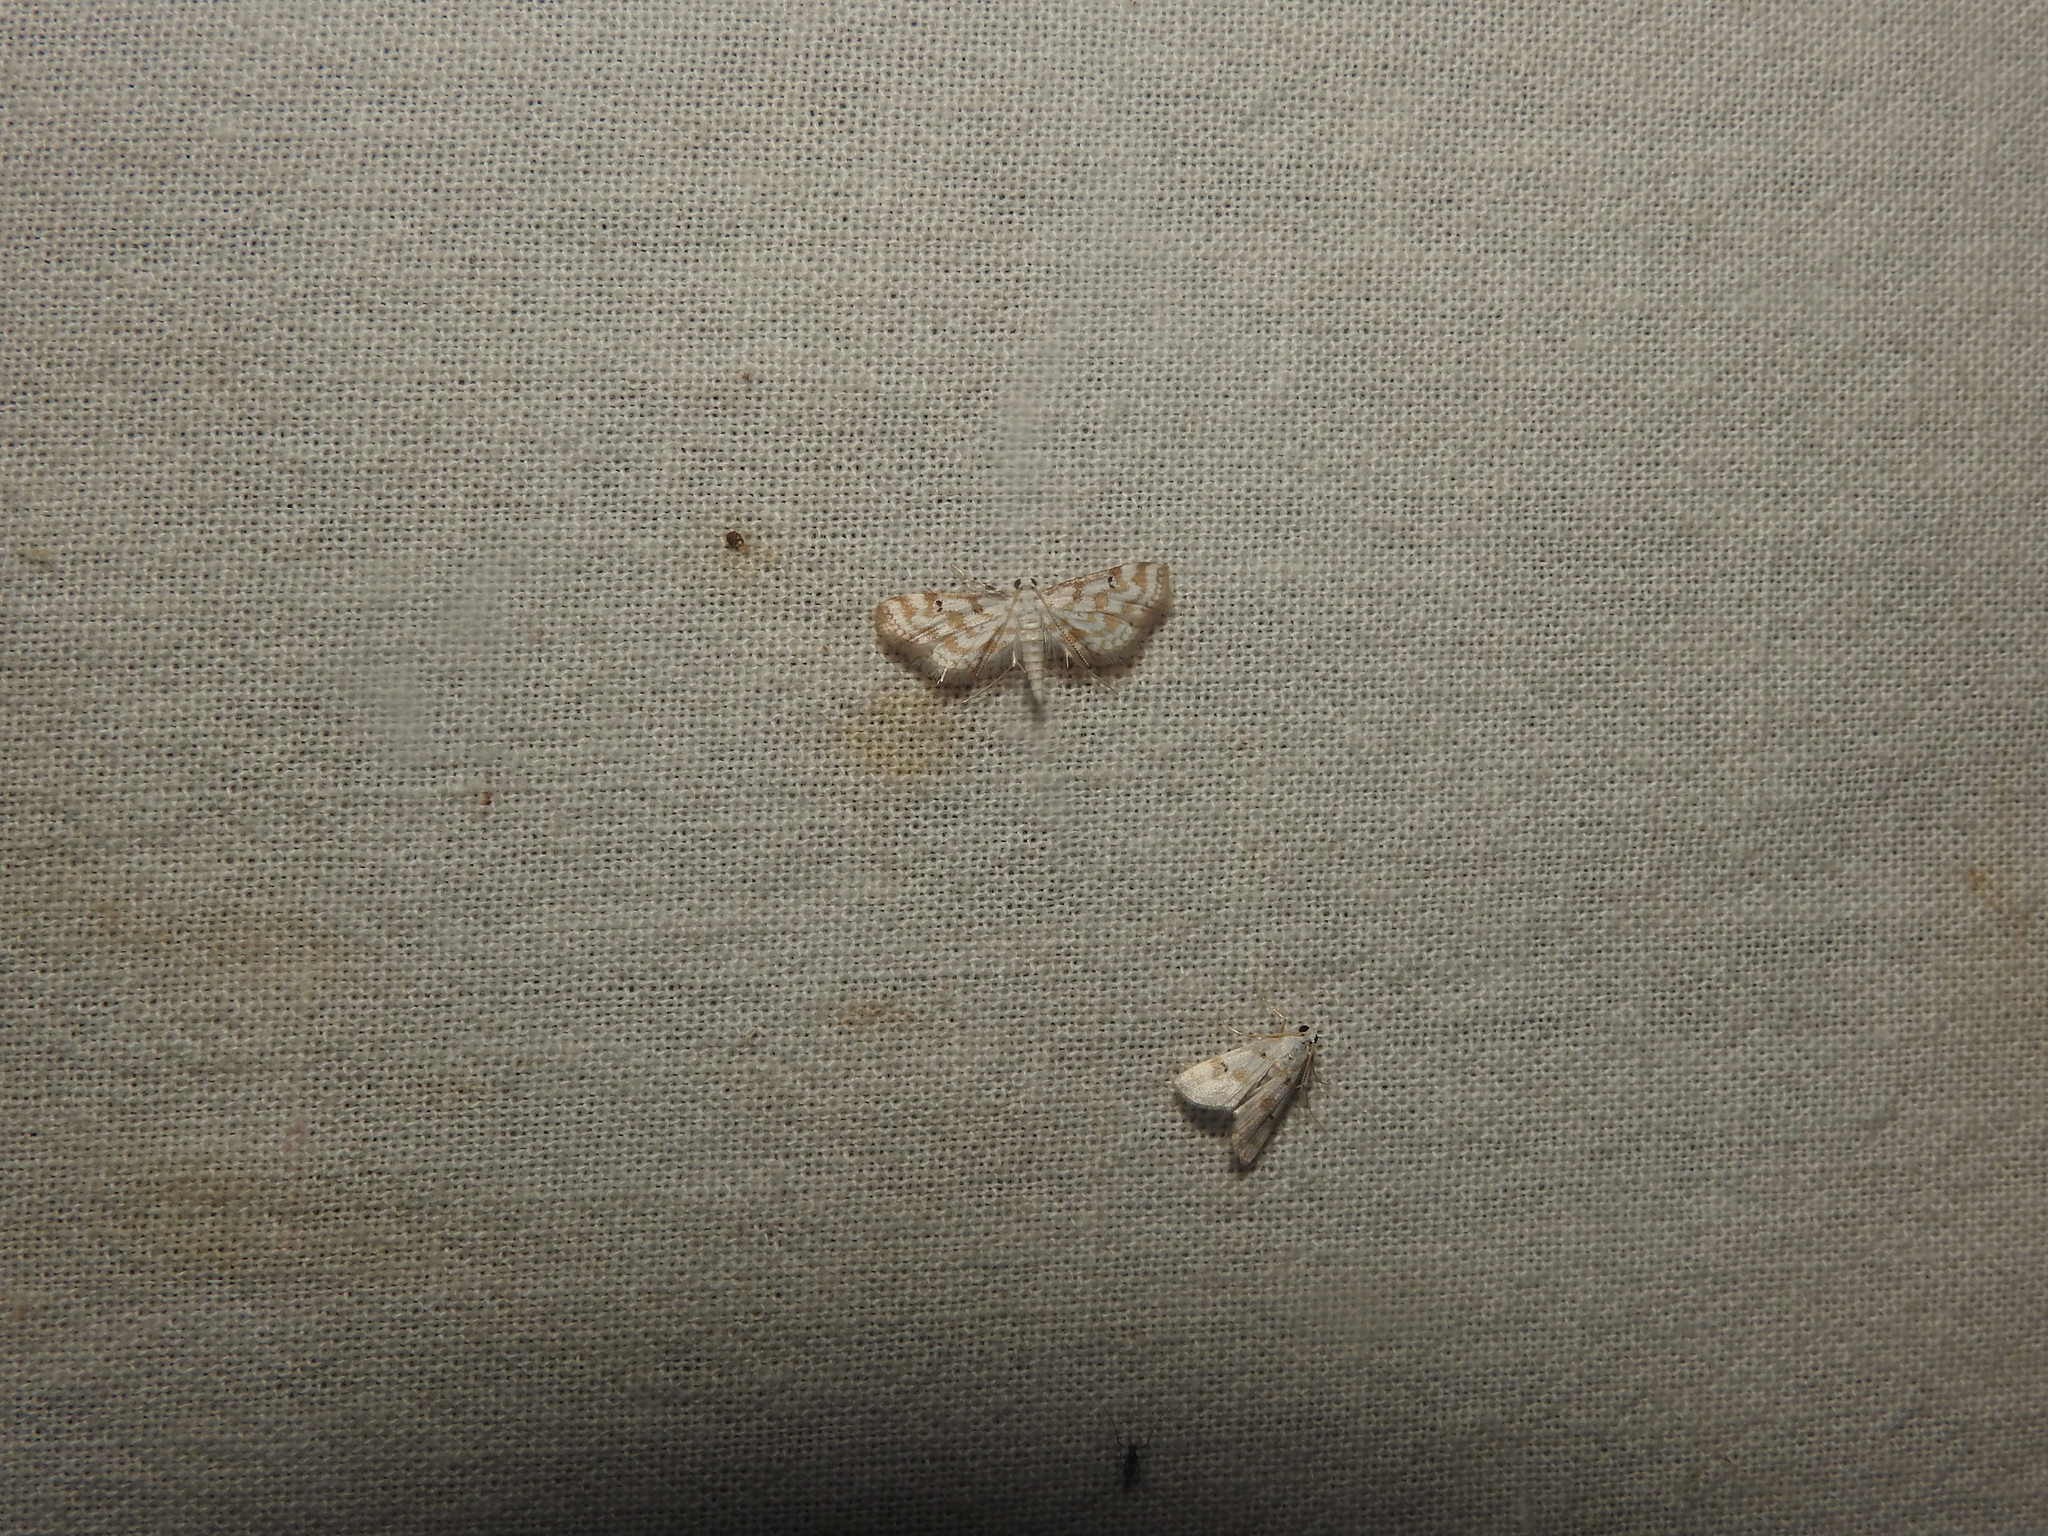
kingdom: Animalia
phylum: Arthropoda
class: Insecta
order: Lepidoptera
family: Crambidae
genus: Parapoynx
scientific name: Parapoynx stagnalis
